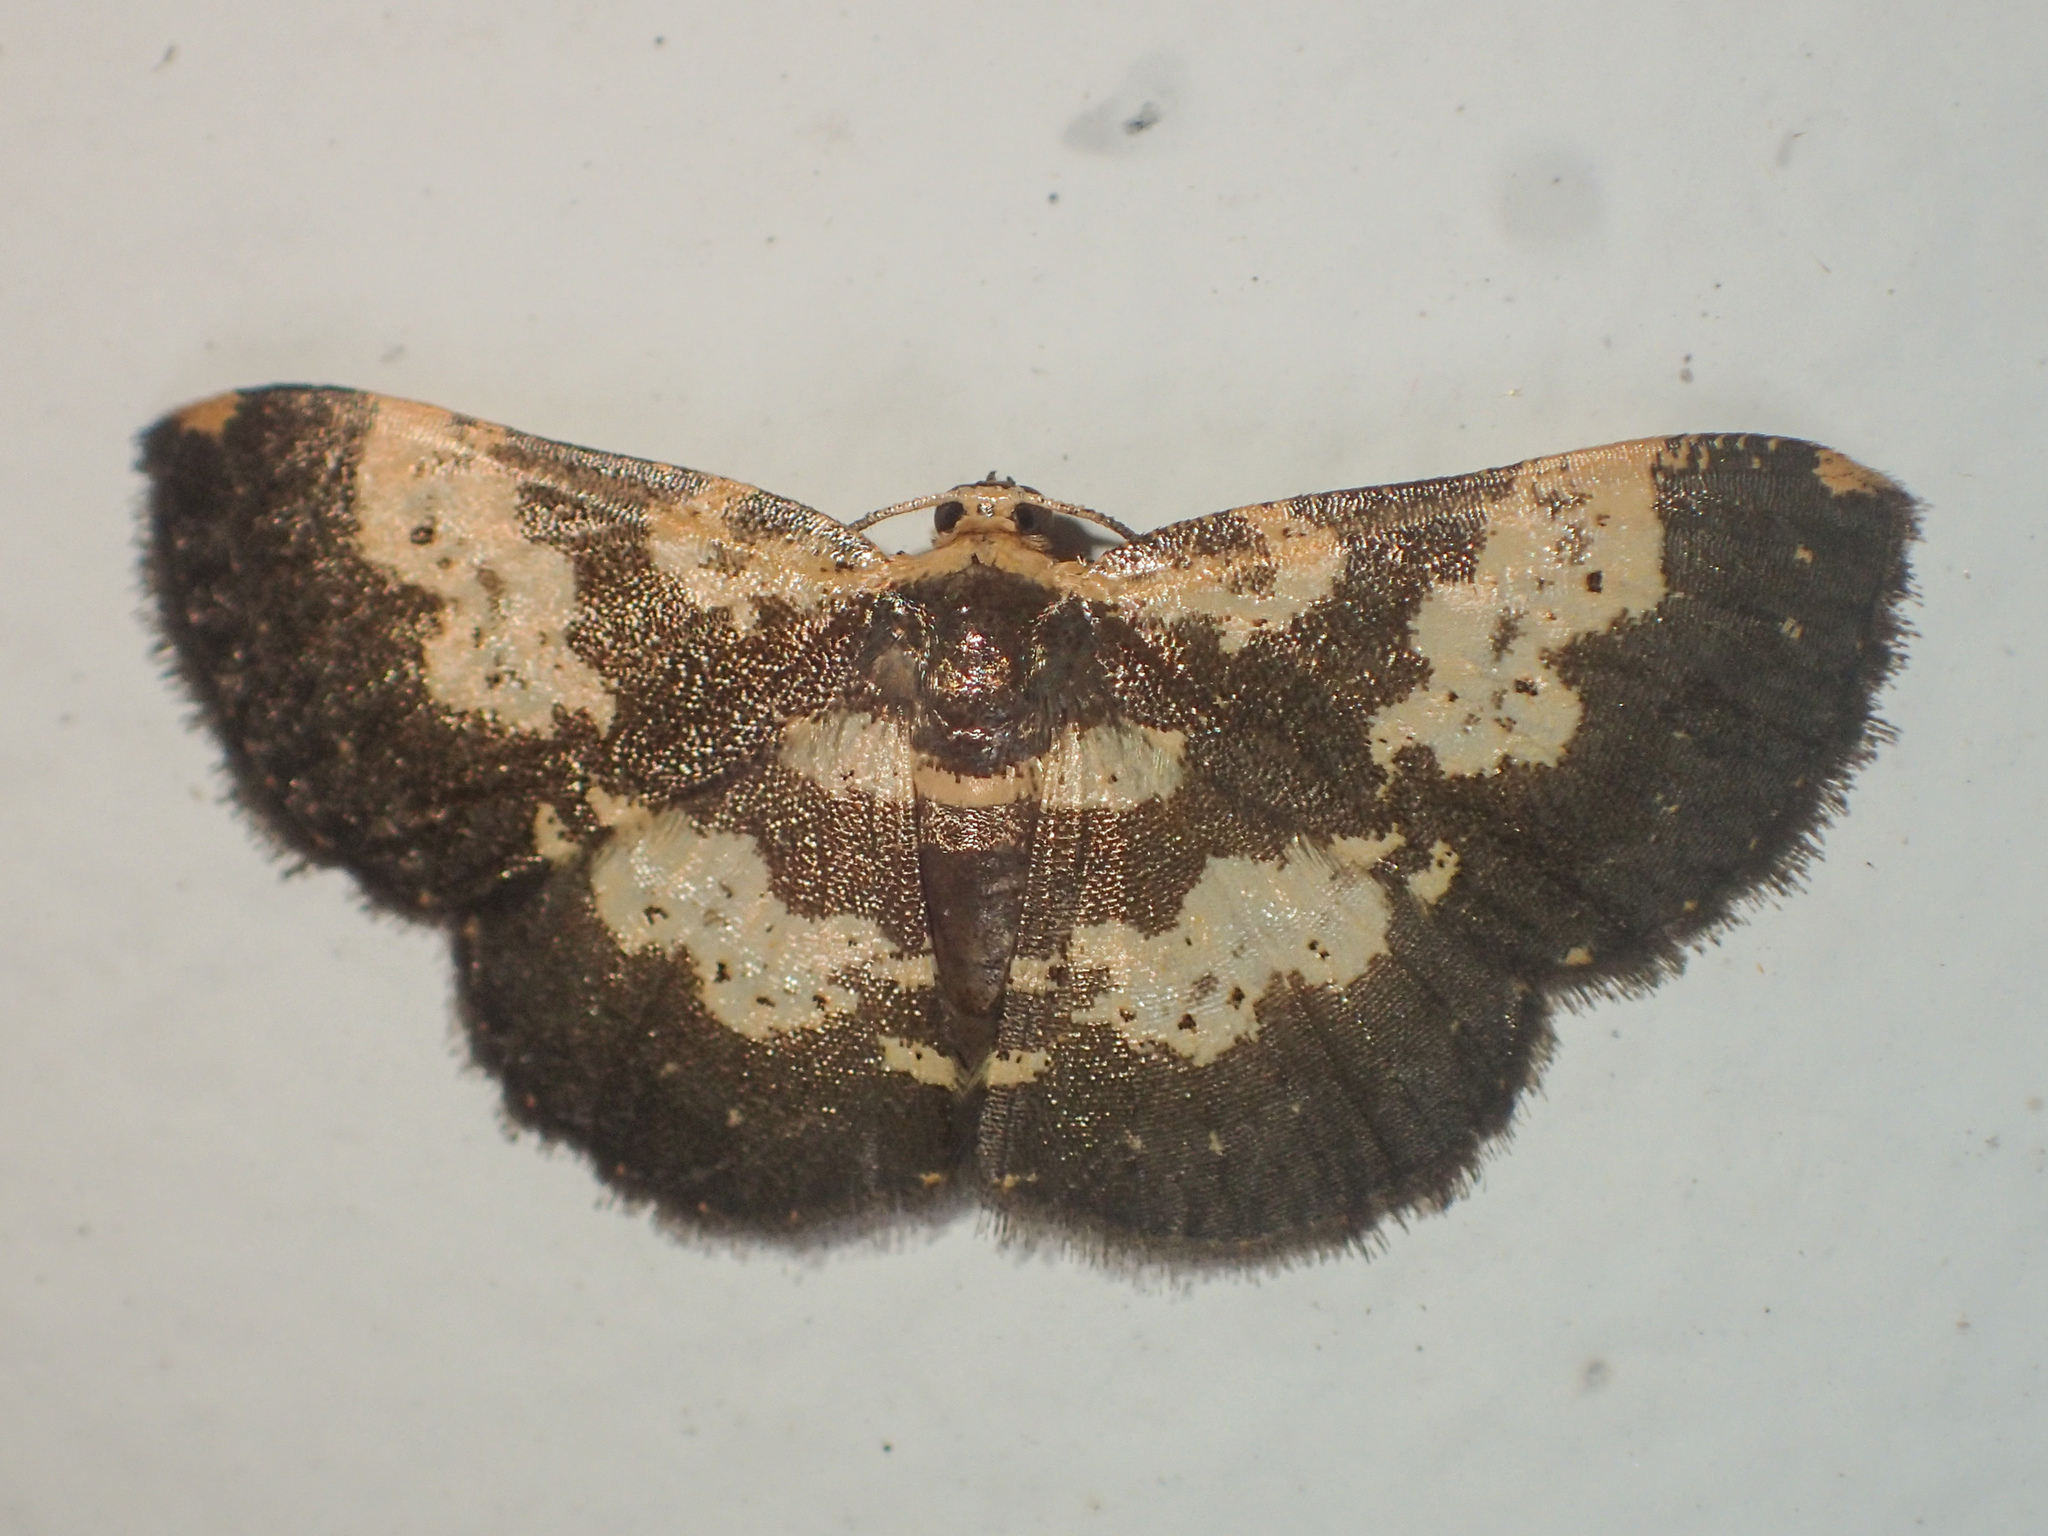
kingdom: Animalia
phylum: Arthropoda
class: Insecta
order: Lepidoptera
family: Geometridae
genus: Peratophyga
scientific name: Peratophyga bifasciata
